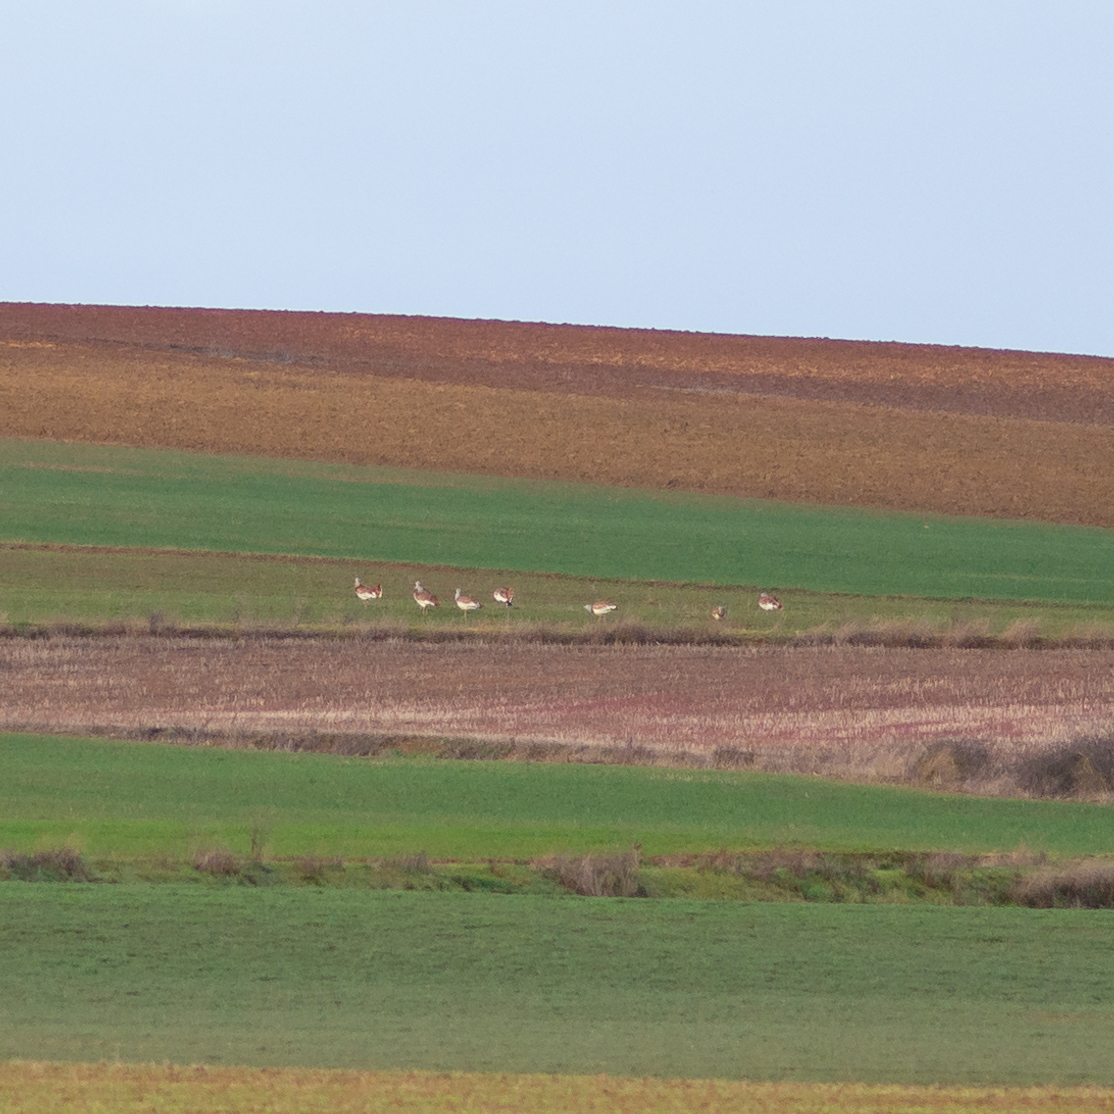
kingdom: Animalia
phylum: Chordata
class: Aves
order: Otidiformes
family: Otididae
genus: Otis
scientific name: Otis tarda
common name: Great bustard
